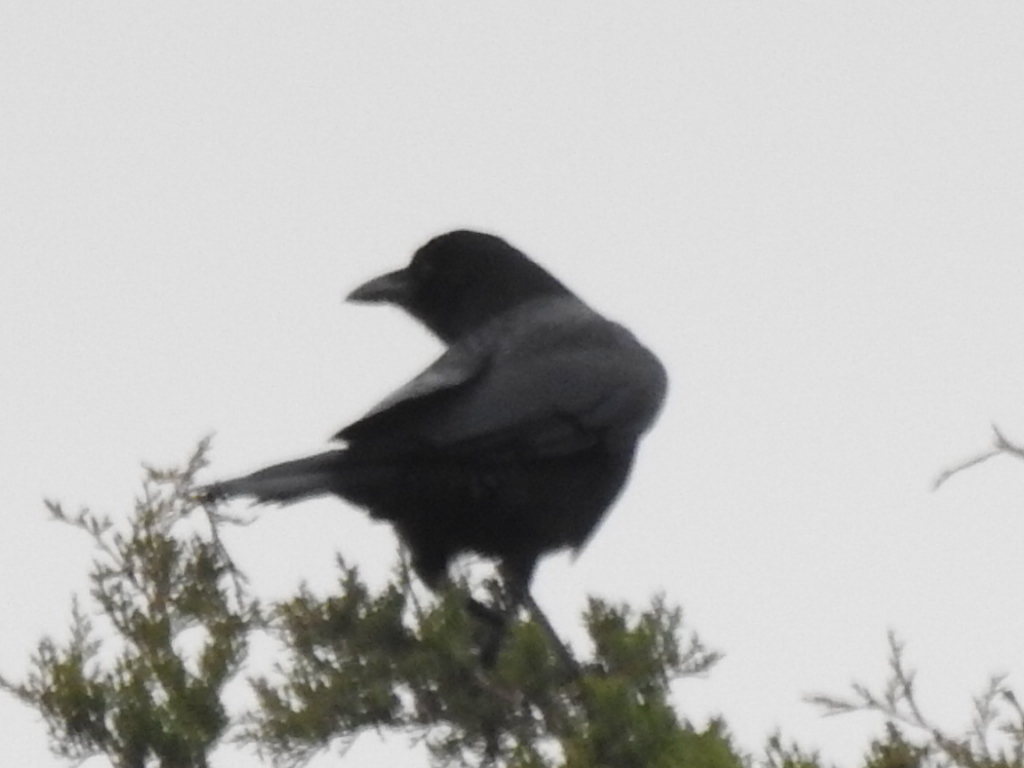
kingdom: Animalia
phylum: Chordata
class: Aves
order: Passeriformes
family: Corvidae
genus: Corvus
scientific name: Corvus brachyrhynchos
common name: American crow
